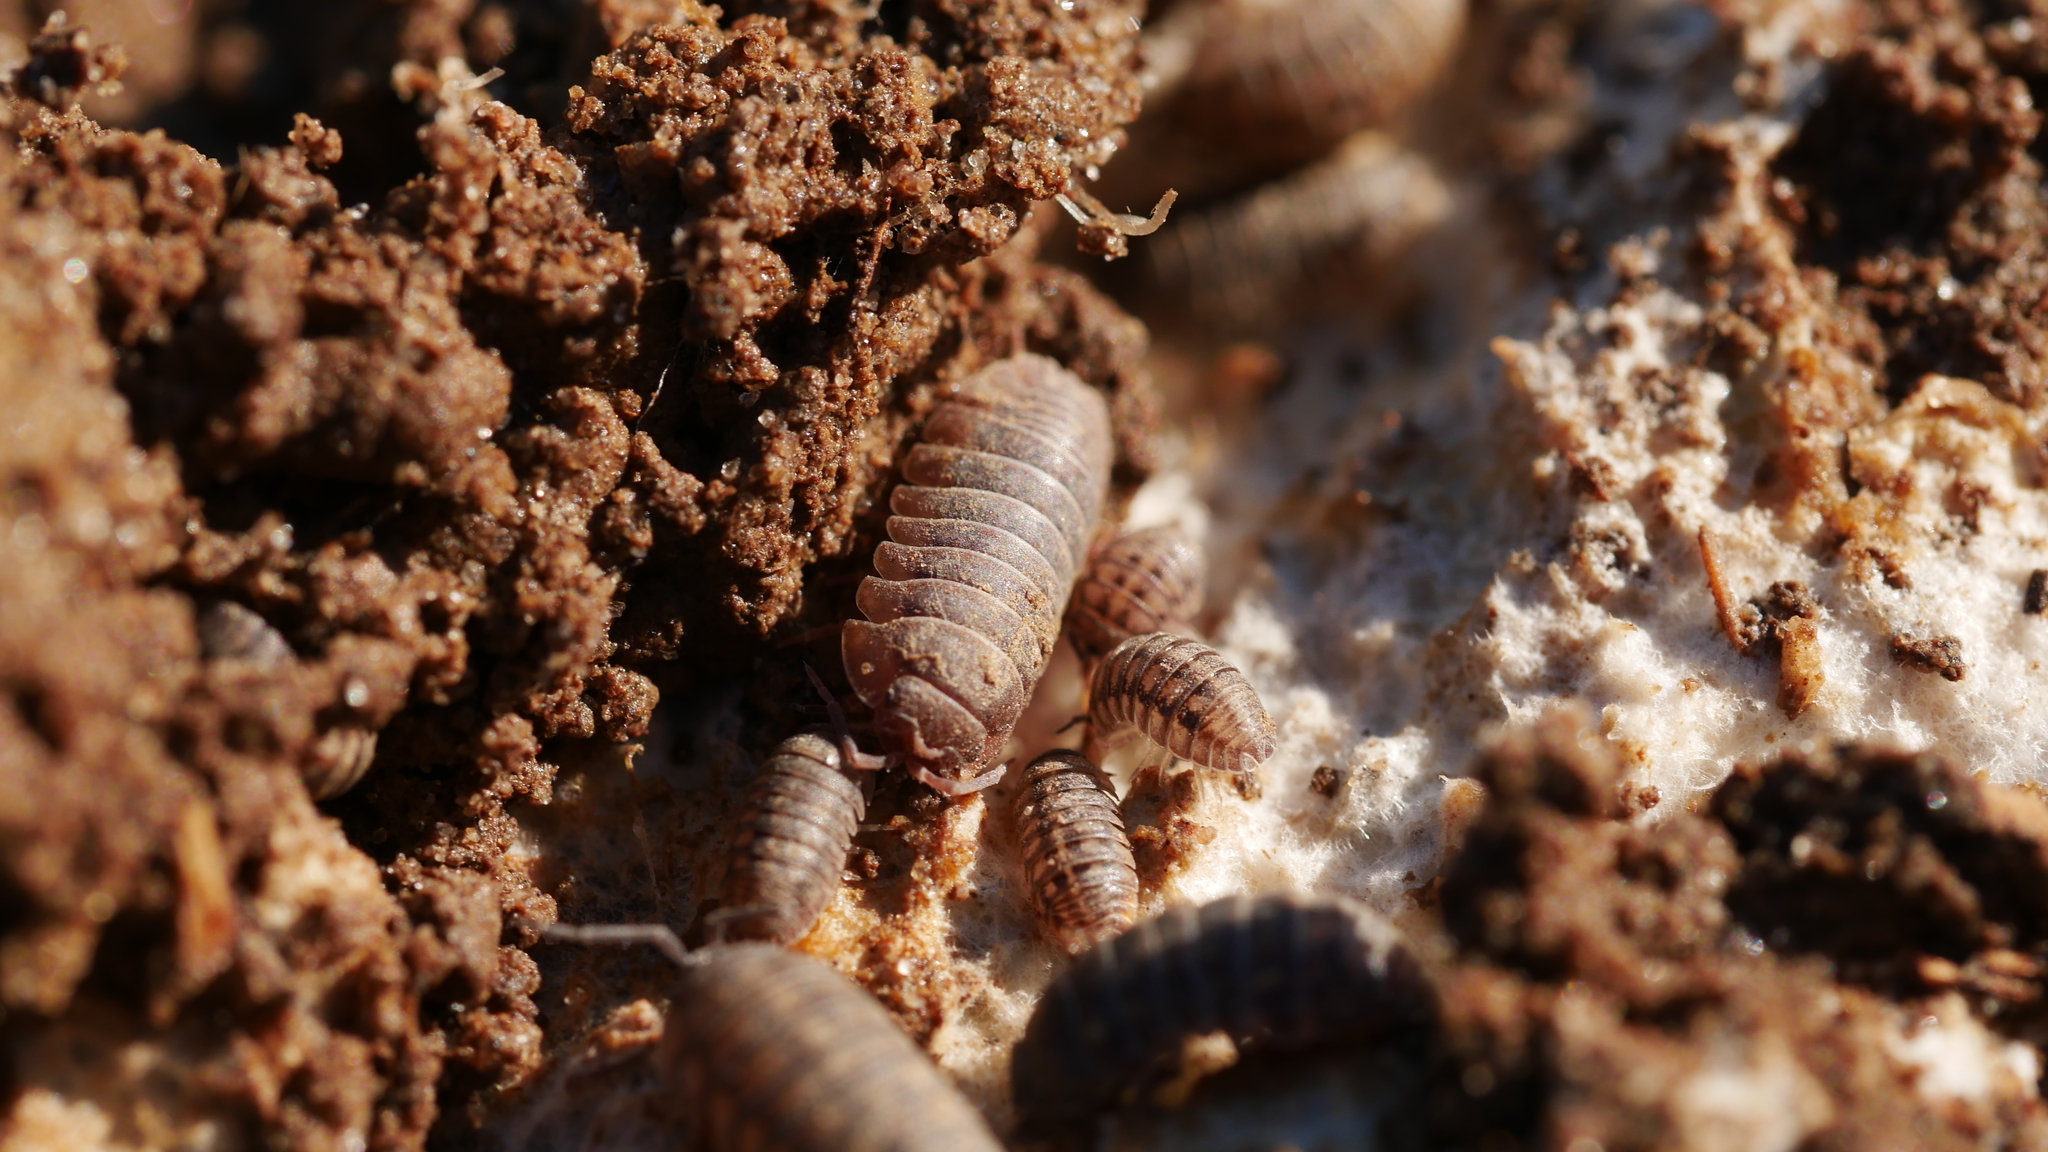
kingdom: Animalia
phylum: Arthropoda
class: Malacostraca
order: Isopoda
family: Armadillidiidae
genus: Armadillidium
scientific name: Armadillidium nasatum
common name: Isopod
